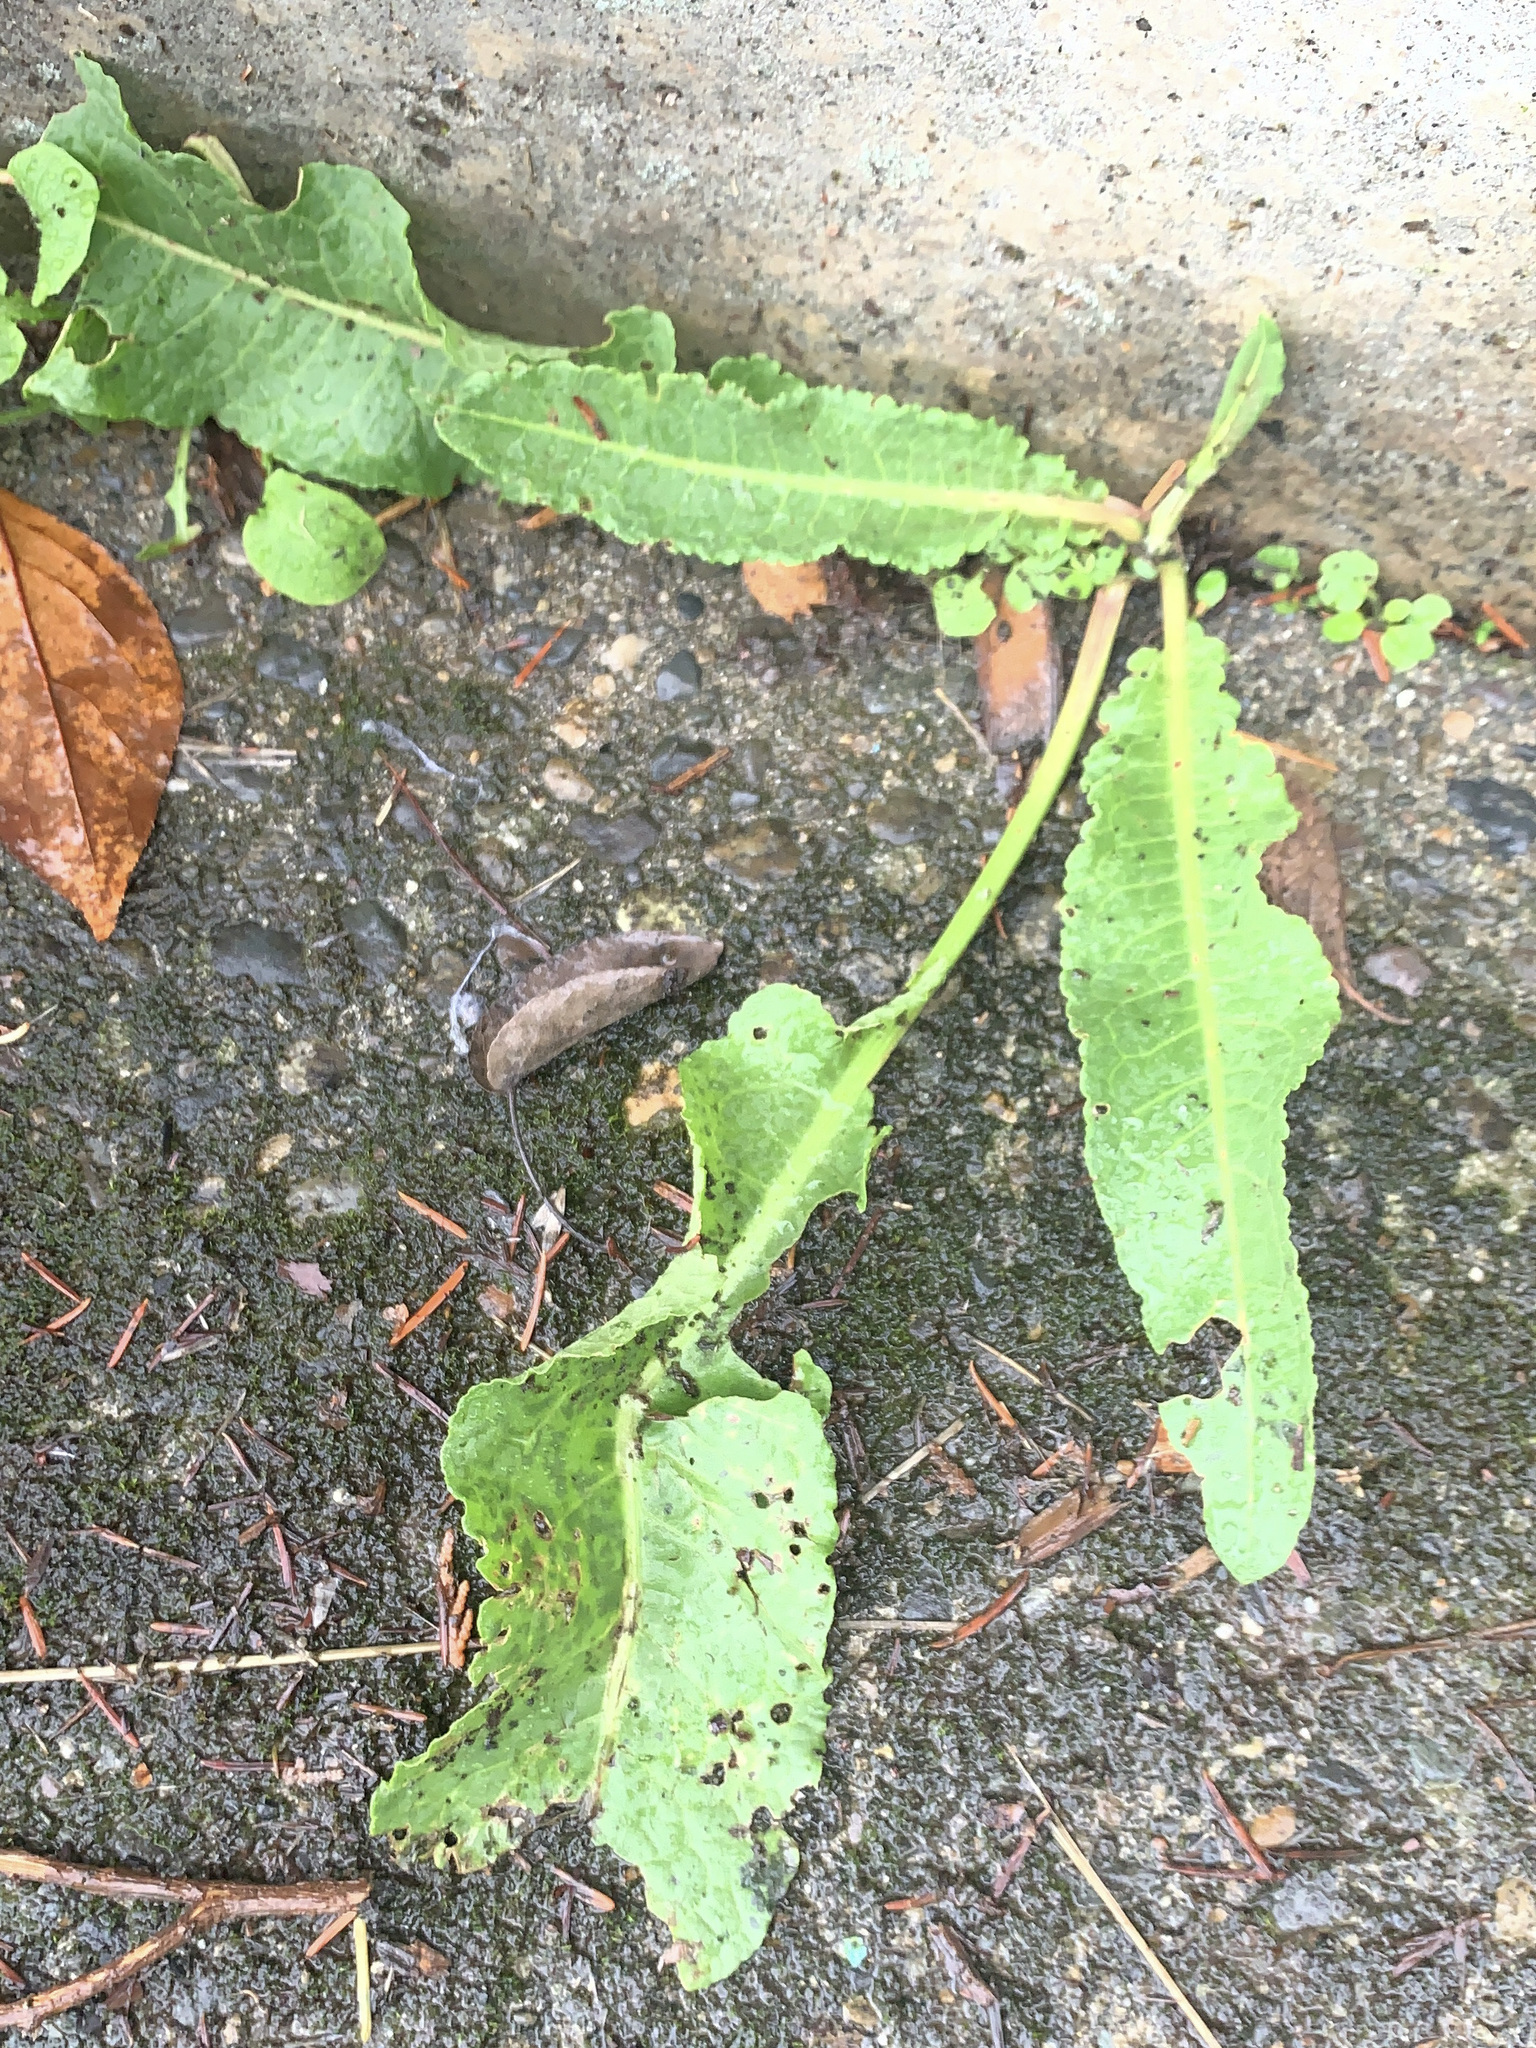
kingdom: Plantae
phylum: Tracheophyta
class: Magnoliopsida
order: Caryophyllales
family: Polygonaceae
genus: Rumex
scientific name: Rumex crispus
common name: Curled dock
